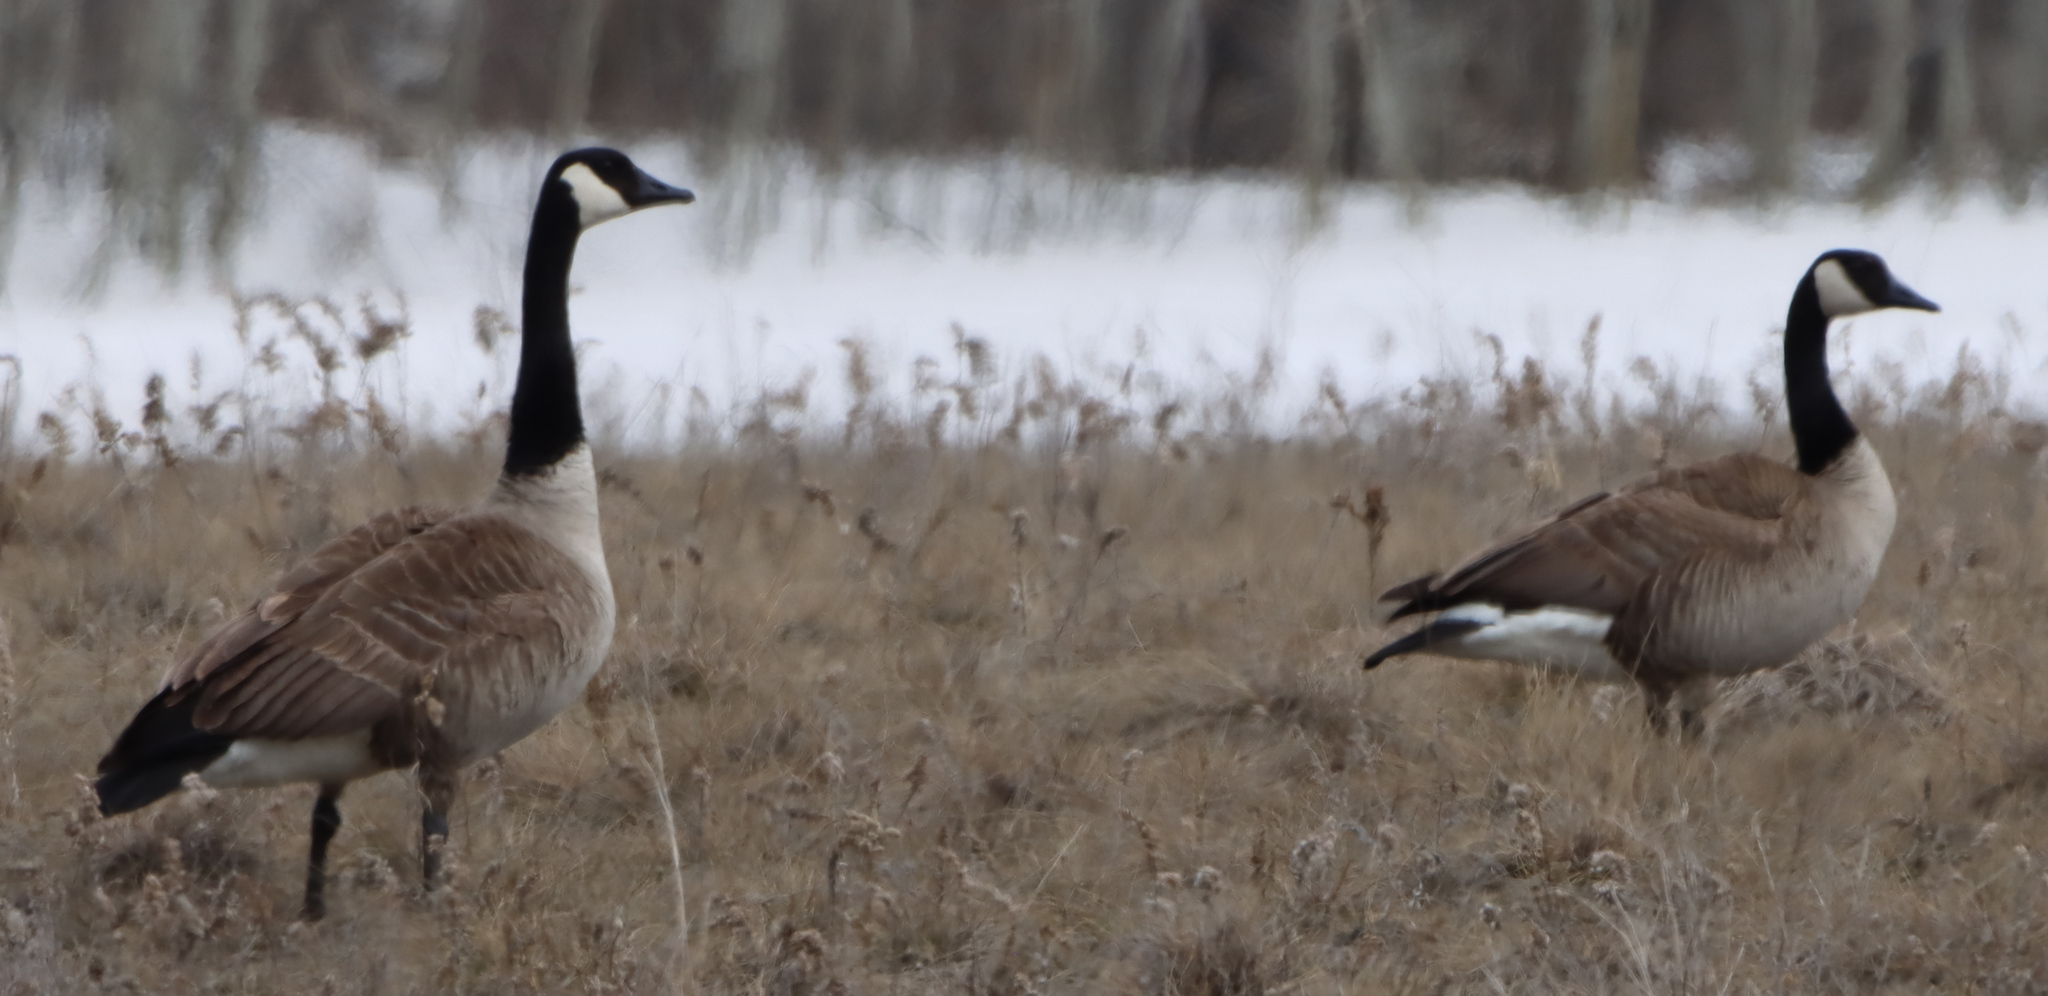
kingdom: Animalia
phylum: Chordata
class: Aves
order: Anseriformes
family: Anatidae
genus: Branta
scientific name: Branta canadensis
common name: Canada goose
